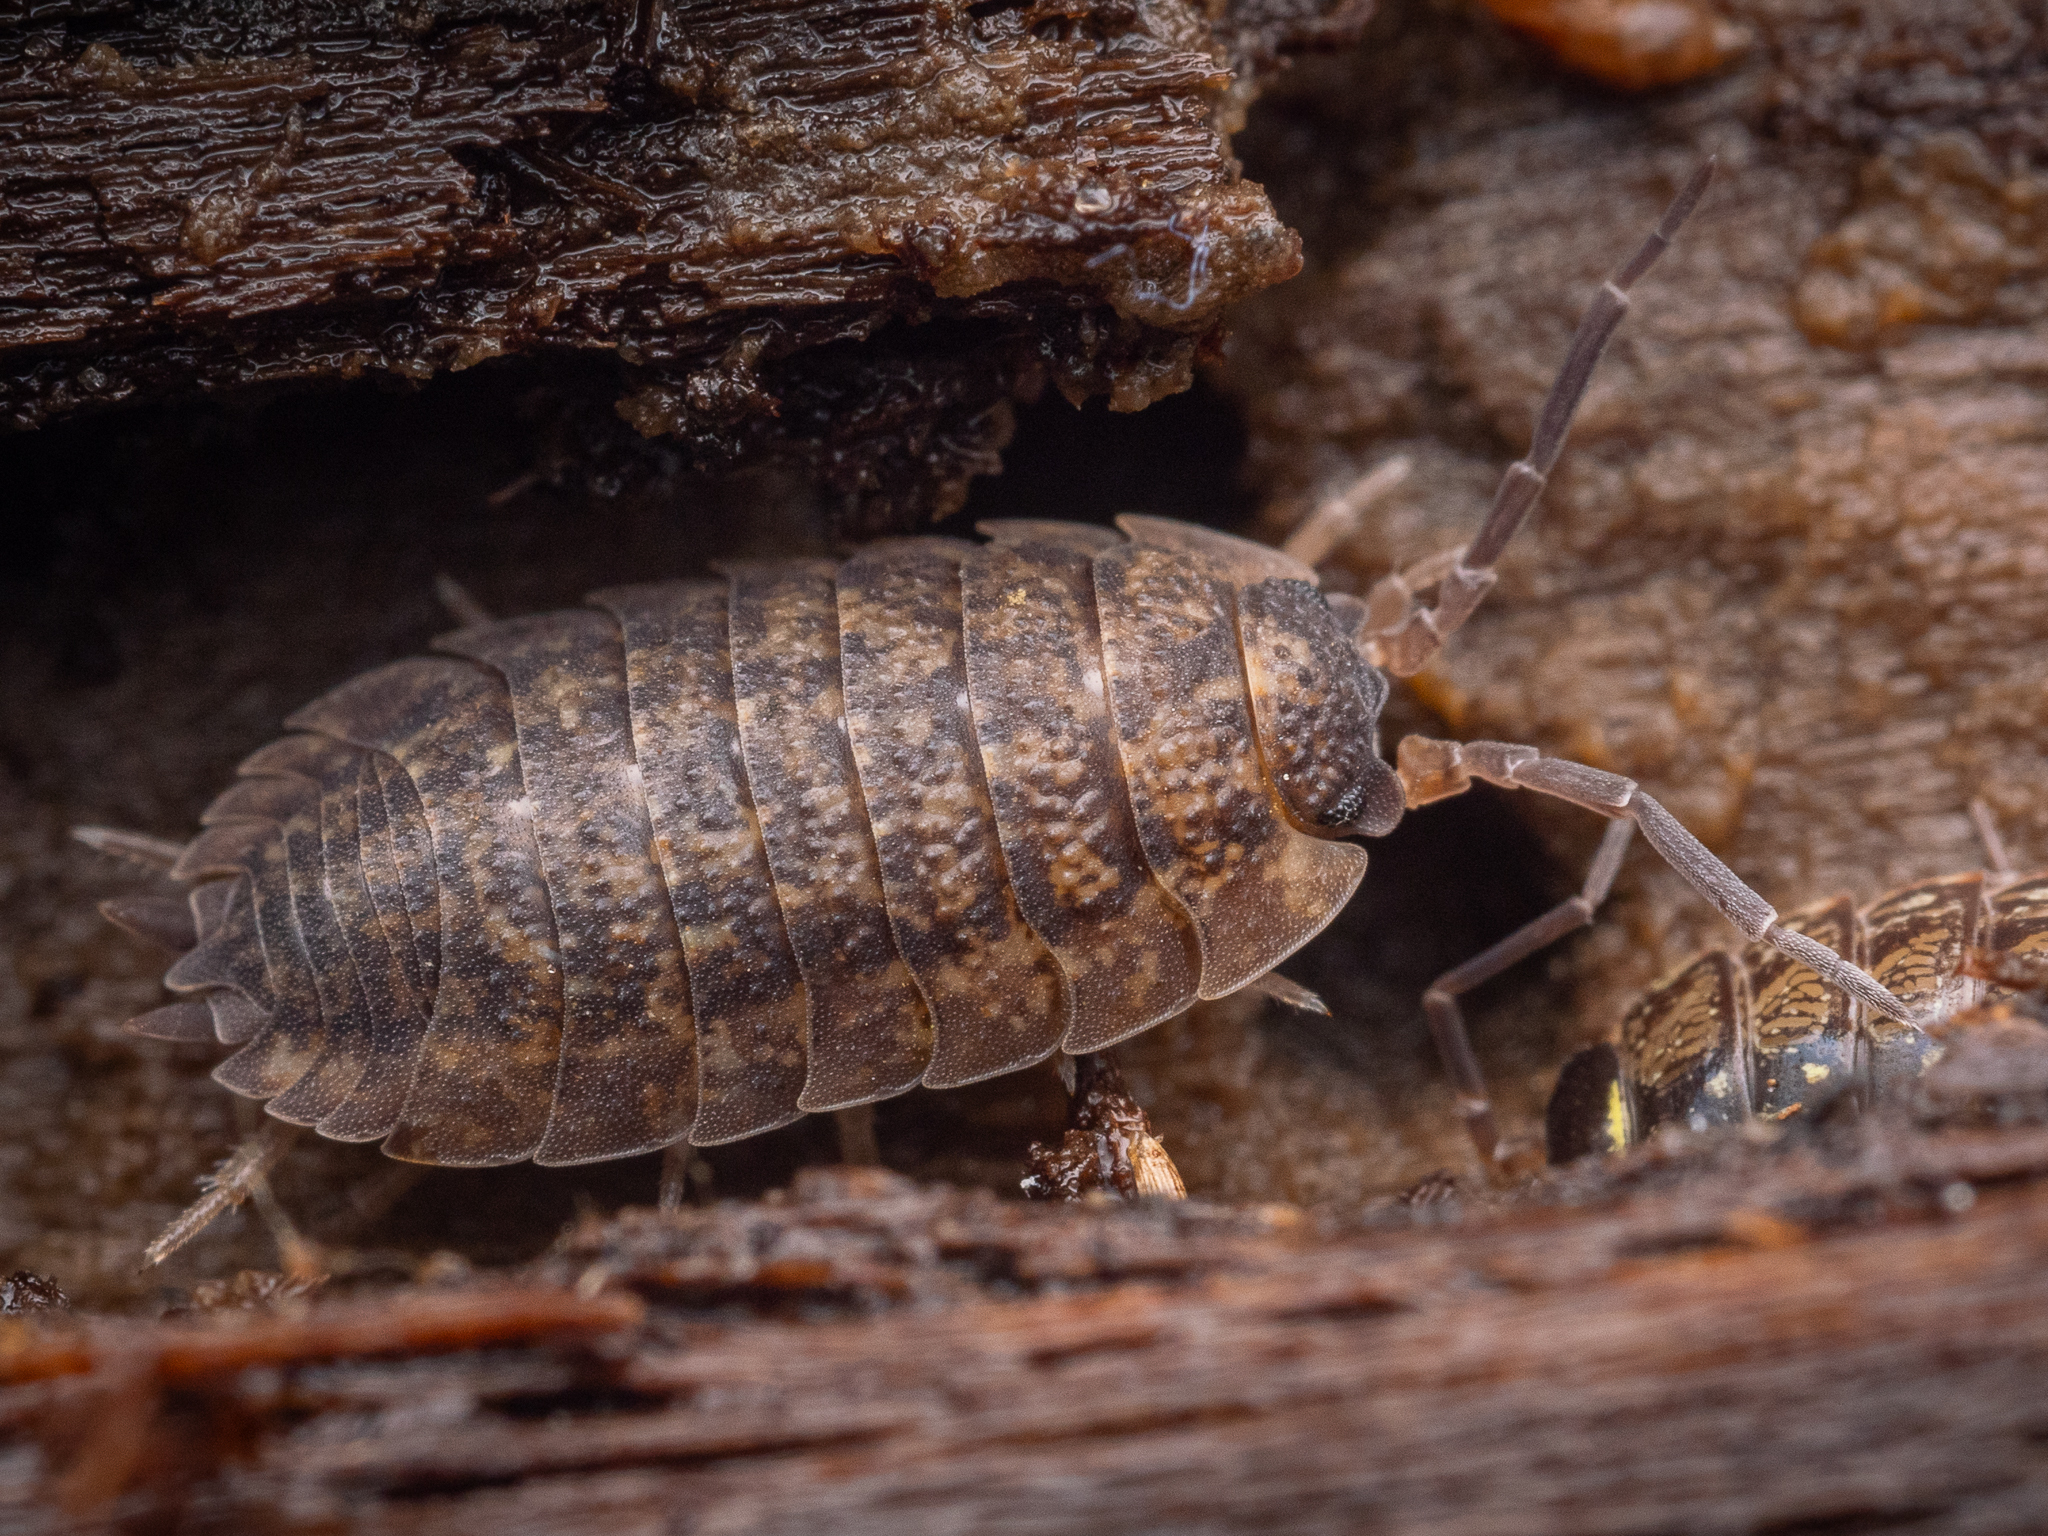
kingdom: Animalia
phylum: Arthropoda
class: Malacostraca
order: Isopoda
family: Porcellionidae
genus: Porcellio
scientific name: Porcellio scaber
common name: Common rough woodlouse
